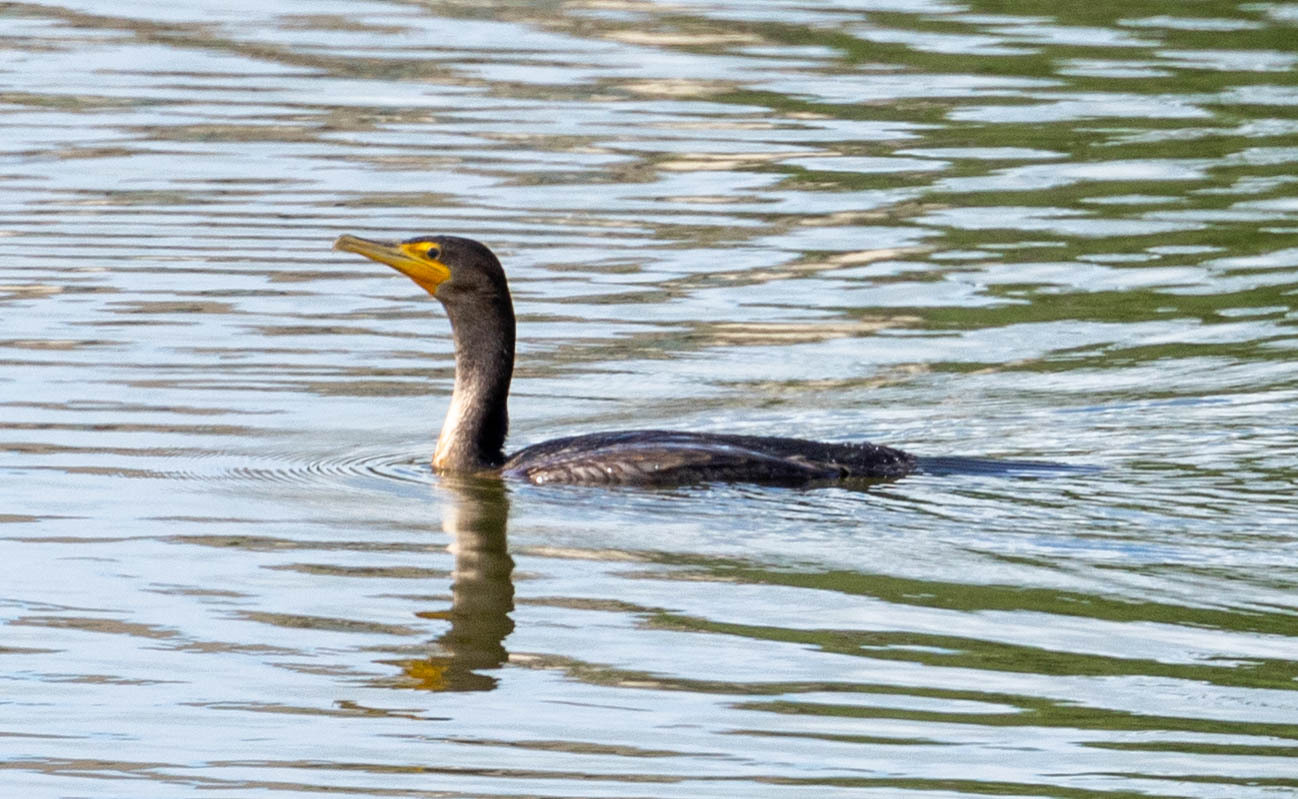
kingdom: Animalia
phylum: Chordata
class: Aves
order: Suliformes
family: Phalacrocoracidae
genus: Phalacrocorax
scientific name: Phalacrocorax auritus
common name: Double-crested cormorant
